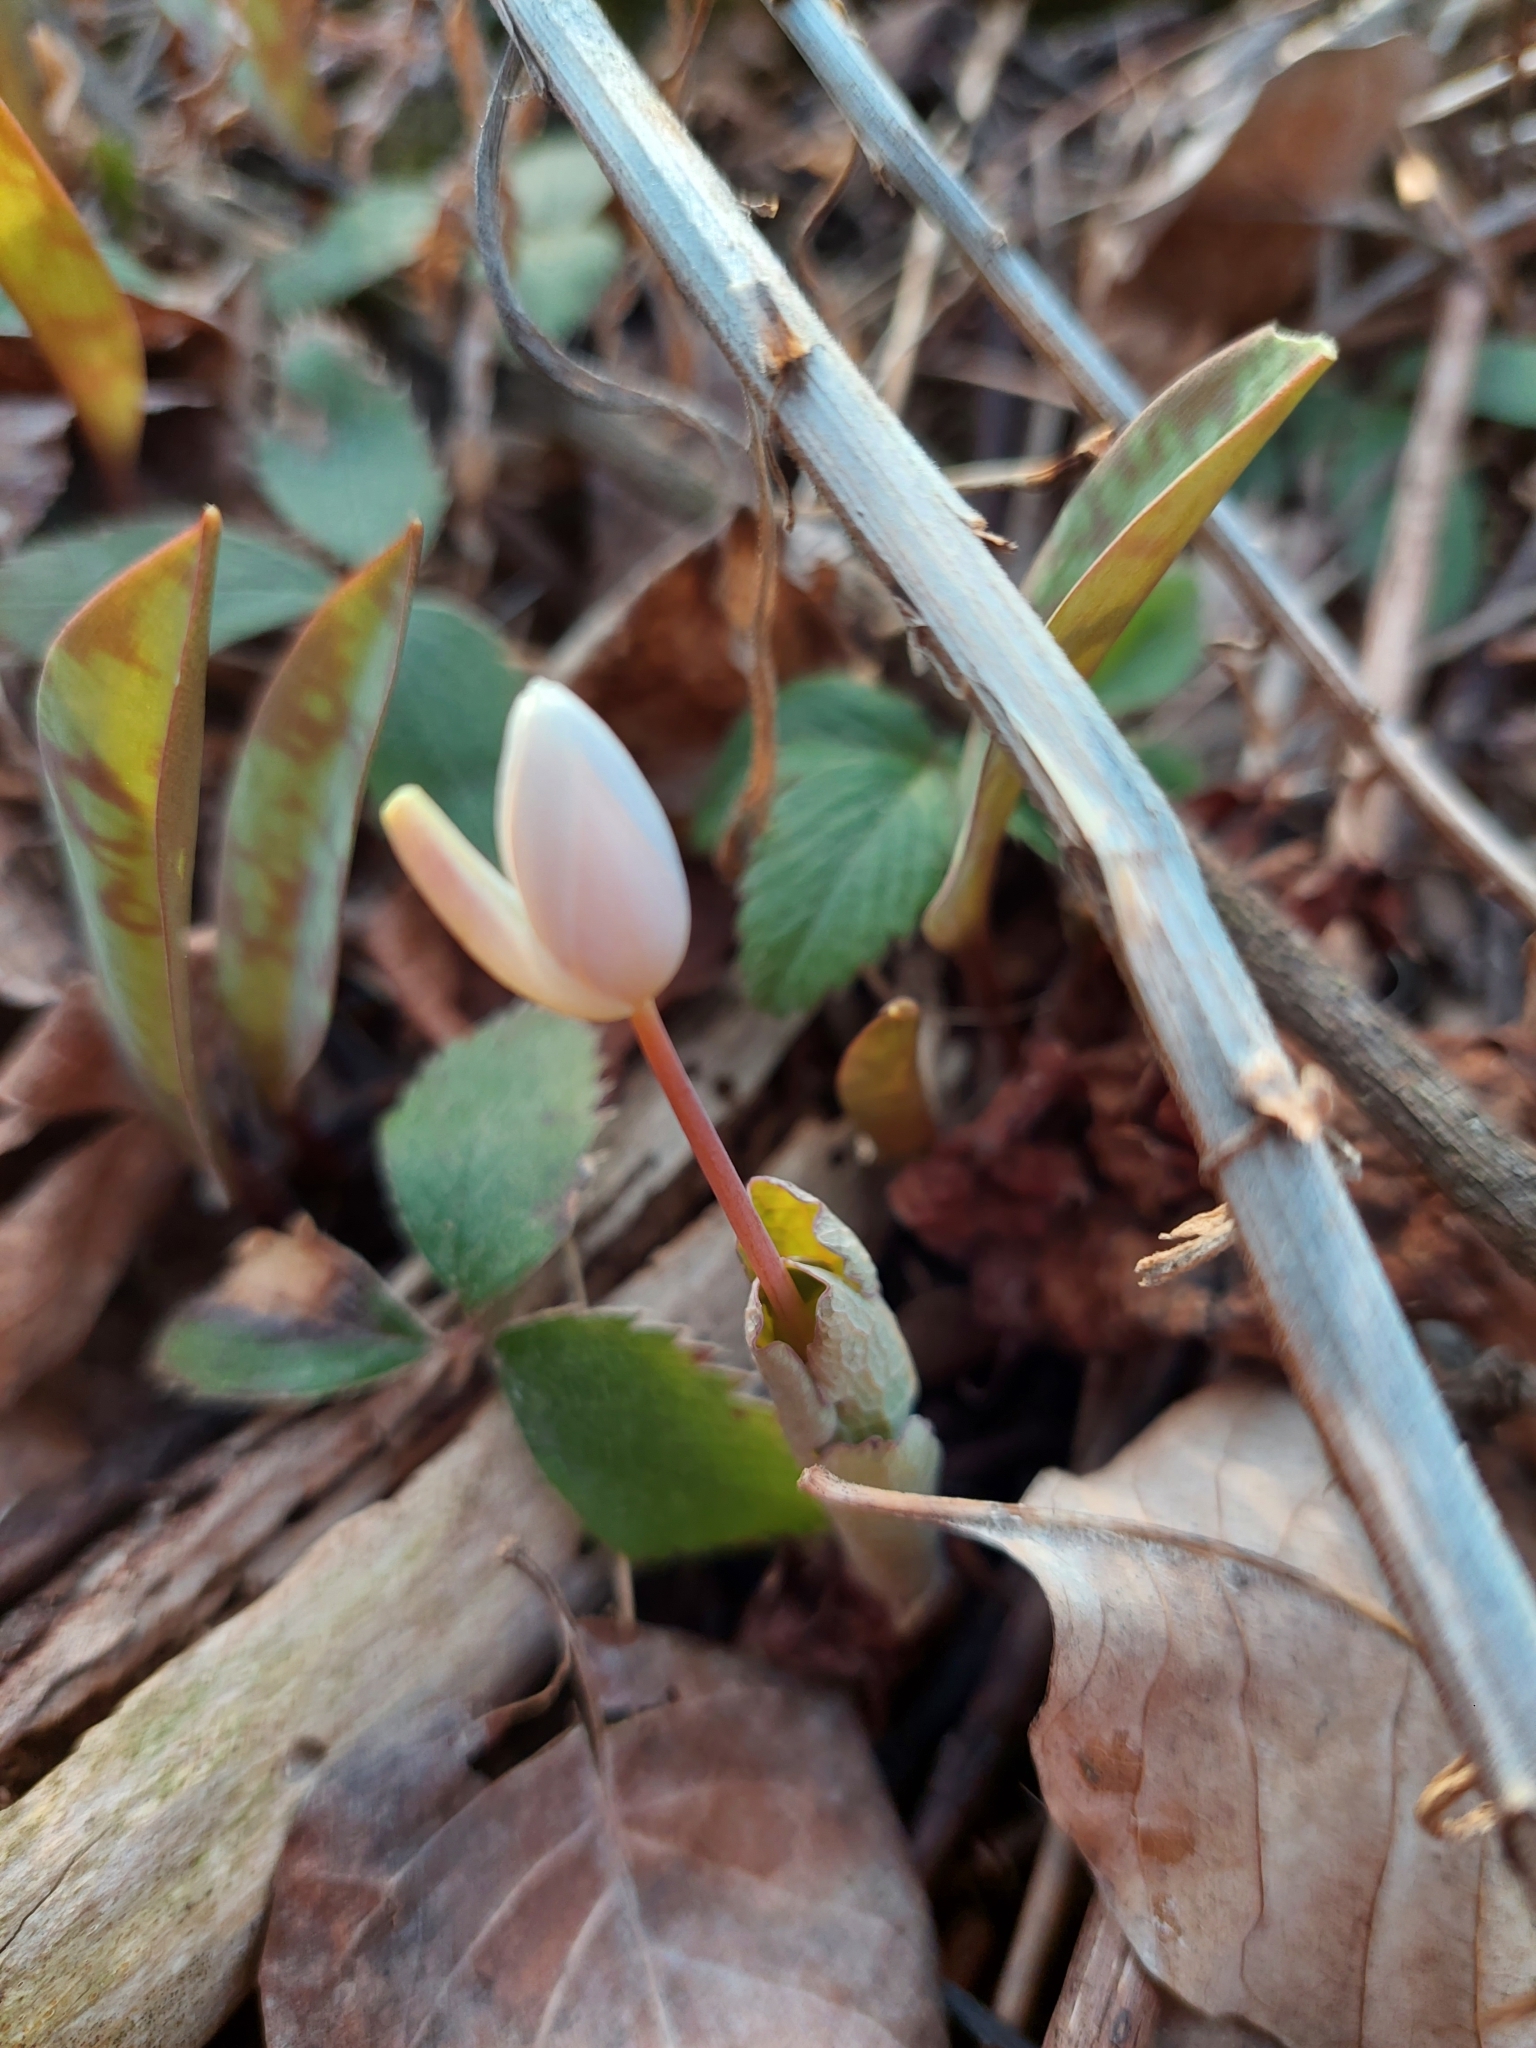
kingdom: Plantae
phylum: Tracheophyta
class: Magnoliopsida
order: Ranunculales
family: Papaveraceae
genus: Sanguinaria
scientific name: Sanguinaria canadensis
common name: Bloodroot
